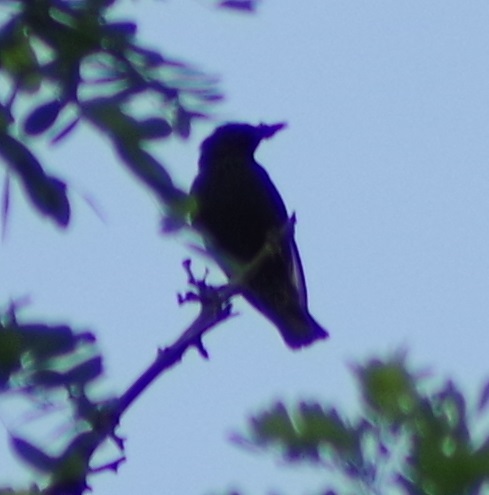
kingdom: Animalia
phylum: Chordata
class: Aves
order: Passeriformes
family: Sturnidae
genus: Sturnus
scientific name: Sturnus vulgaris
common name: Common starling
